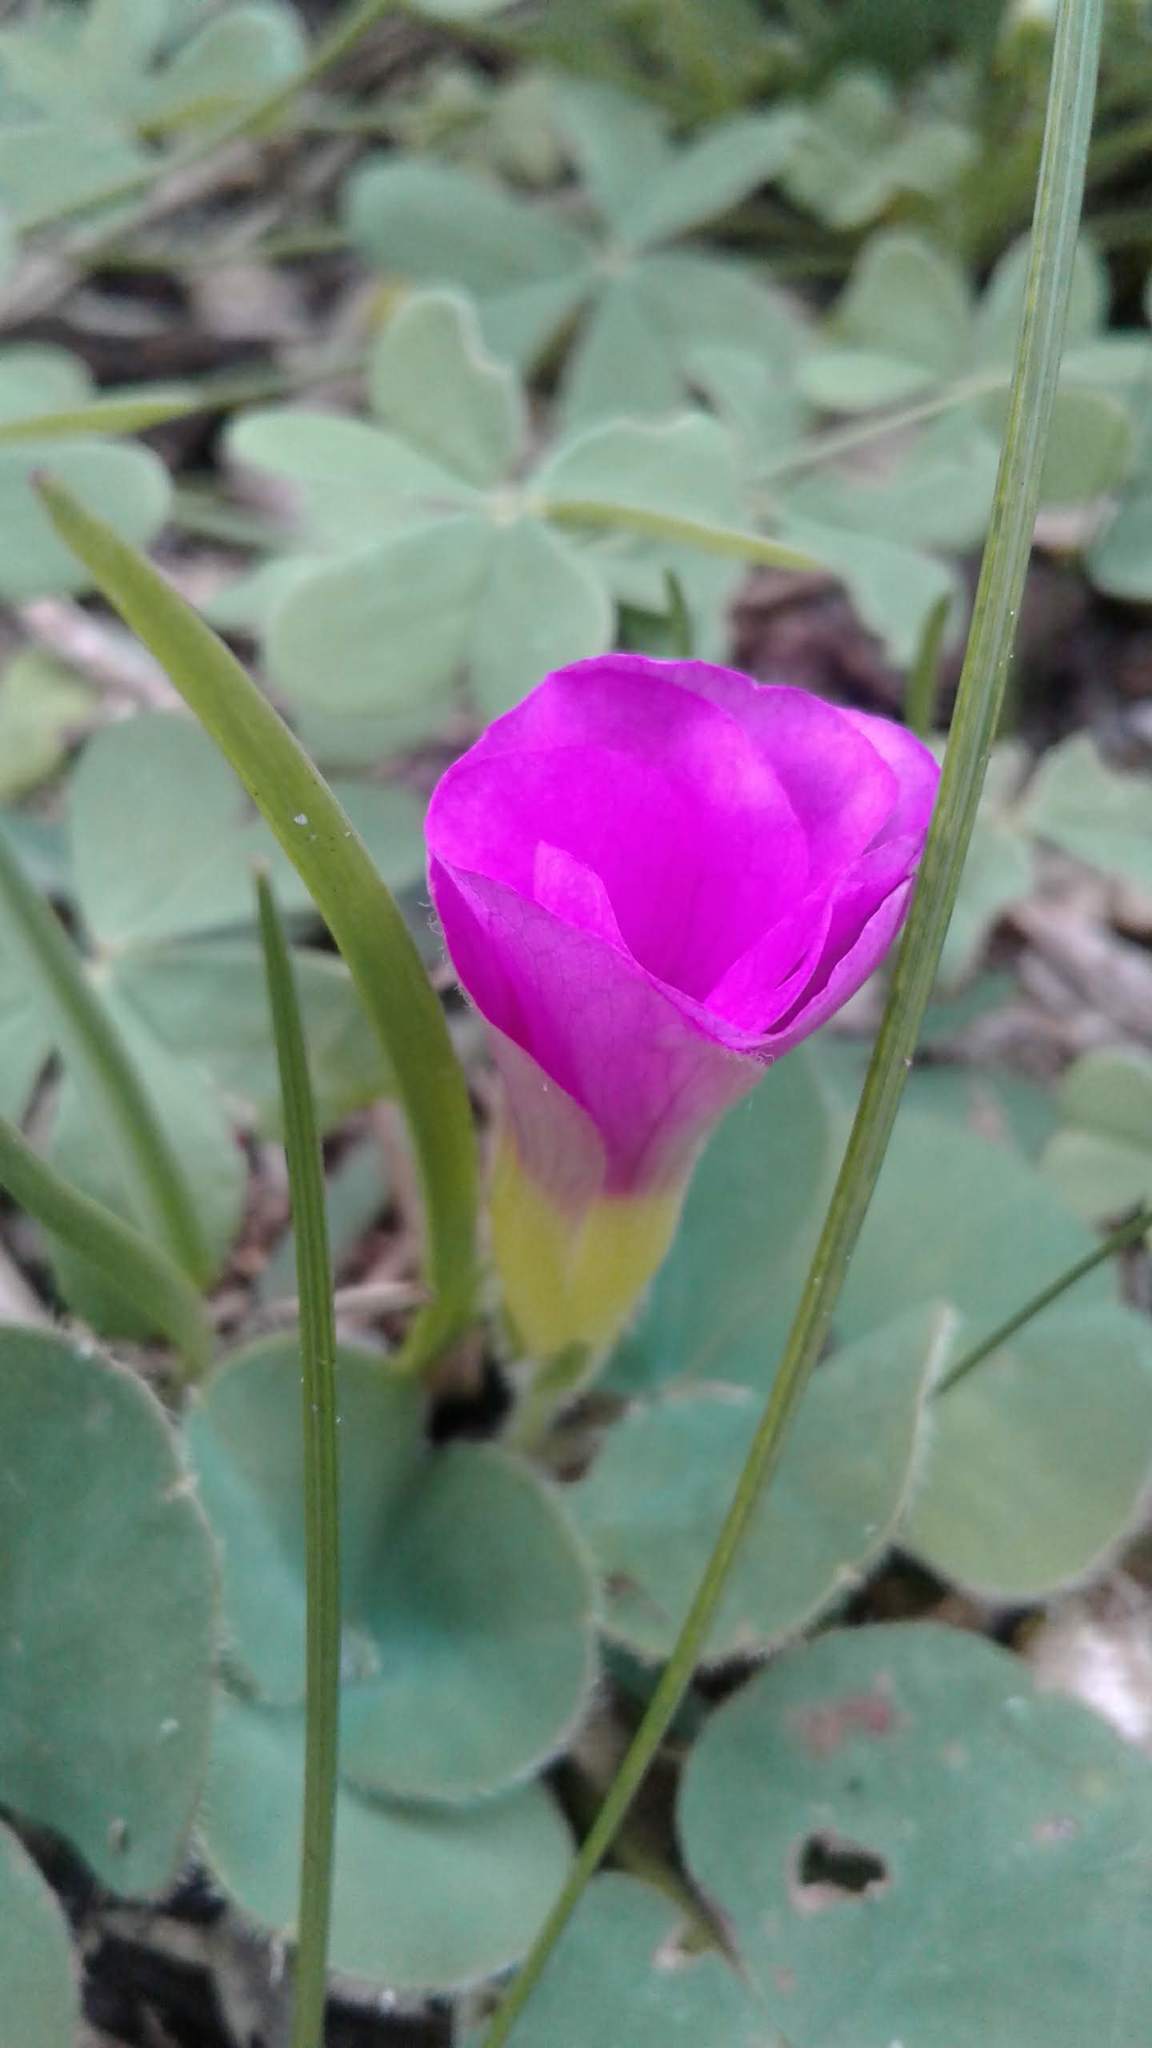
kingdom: Plantae
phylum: Tracheophyta
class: Magnoliopsida
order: Oxalidales
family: Oxalidaceae
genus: Oxalis
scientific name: Oxalis purpurea
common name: Purple woodsorrel
